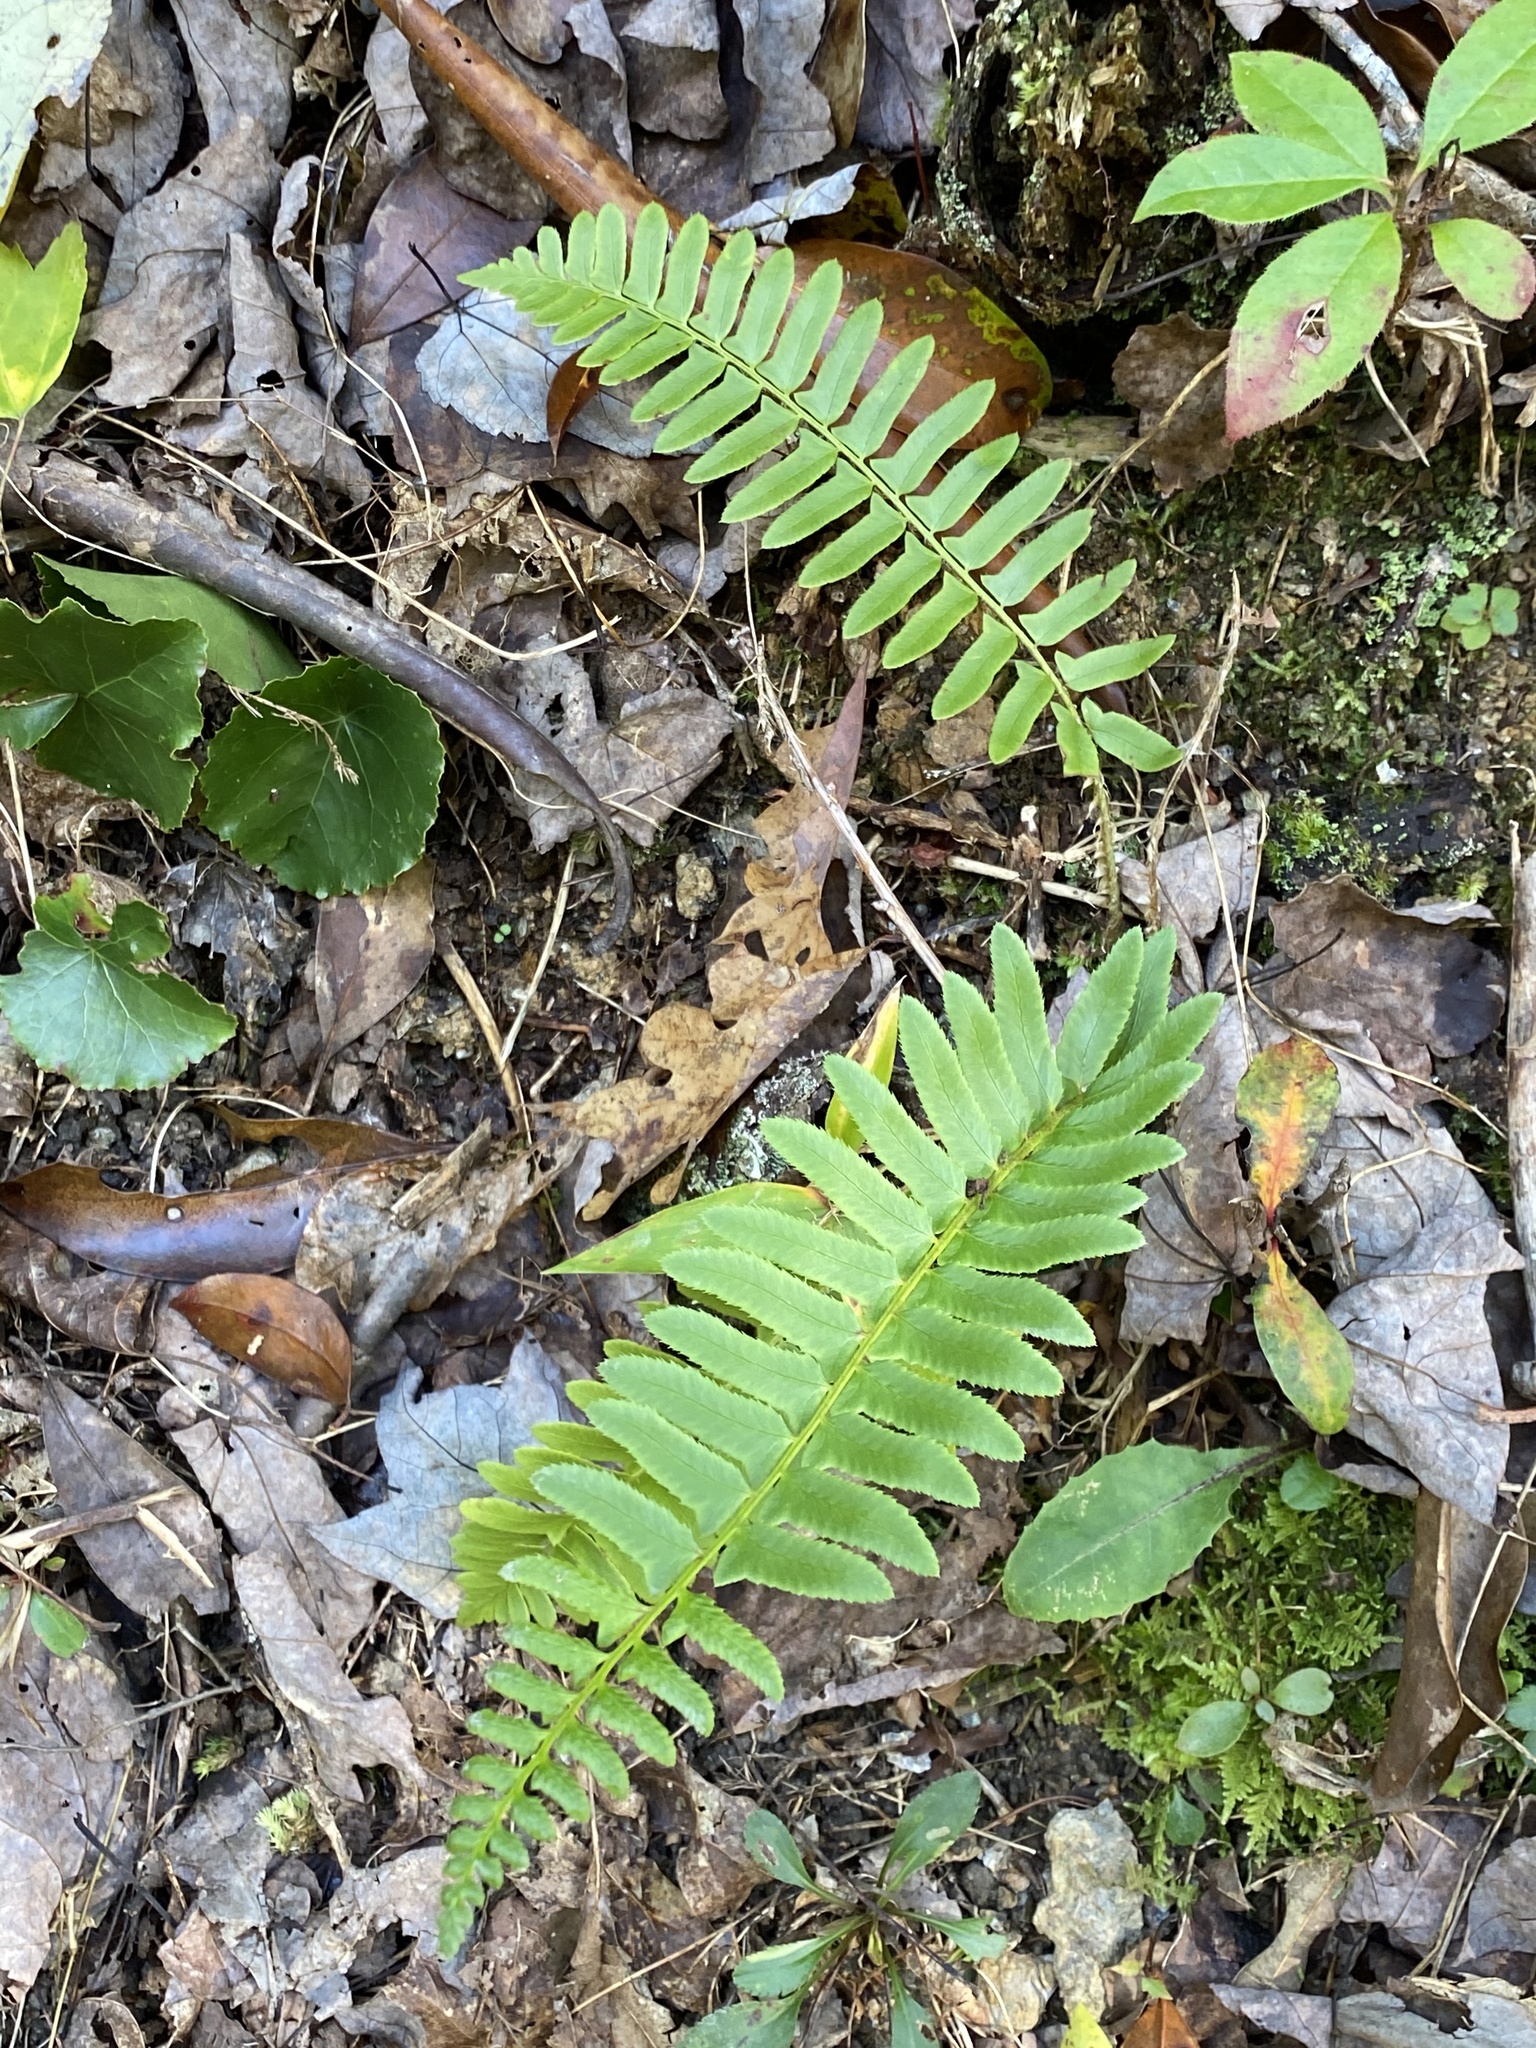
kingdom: Plantae
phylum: Tracheophyta
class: Polypodiopsida
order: Polypodiales
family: Dryopteridaceae
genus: Polystichum
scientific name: Polystichum acrostichoides
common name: Christmas fern
